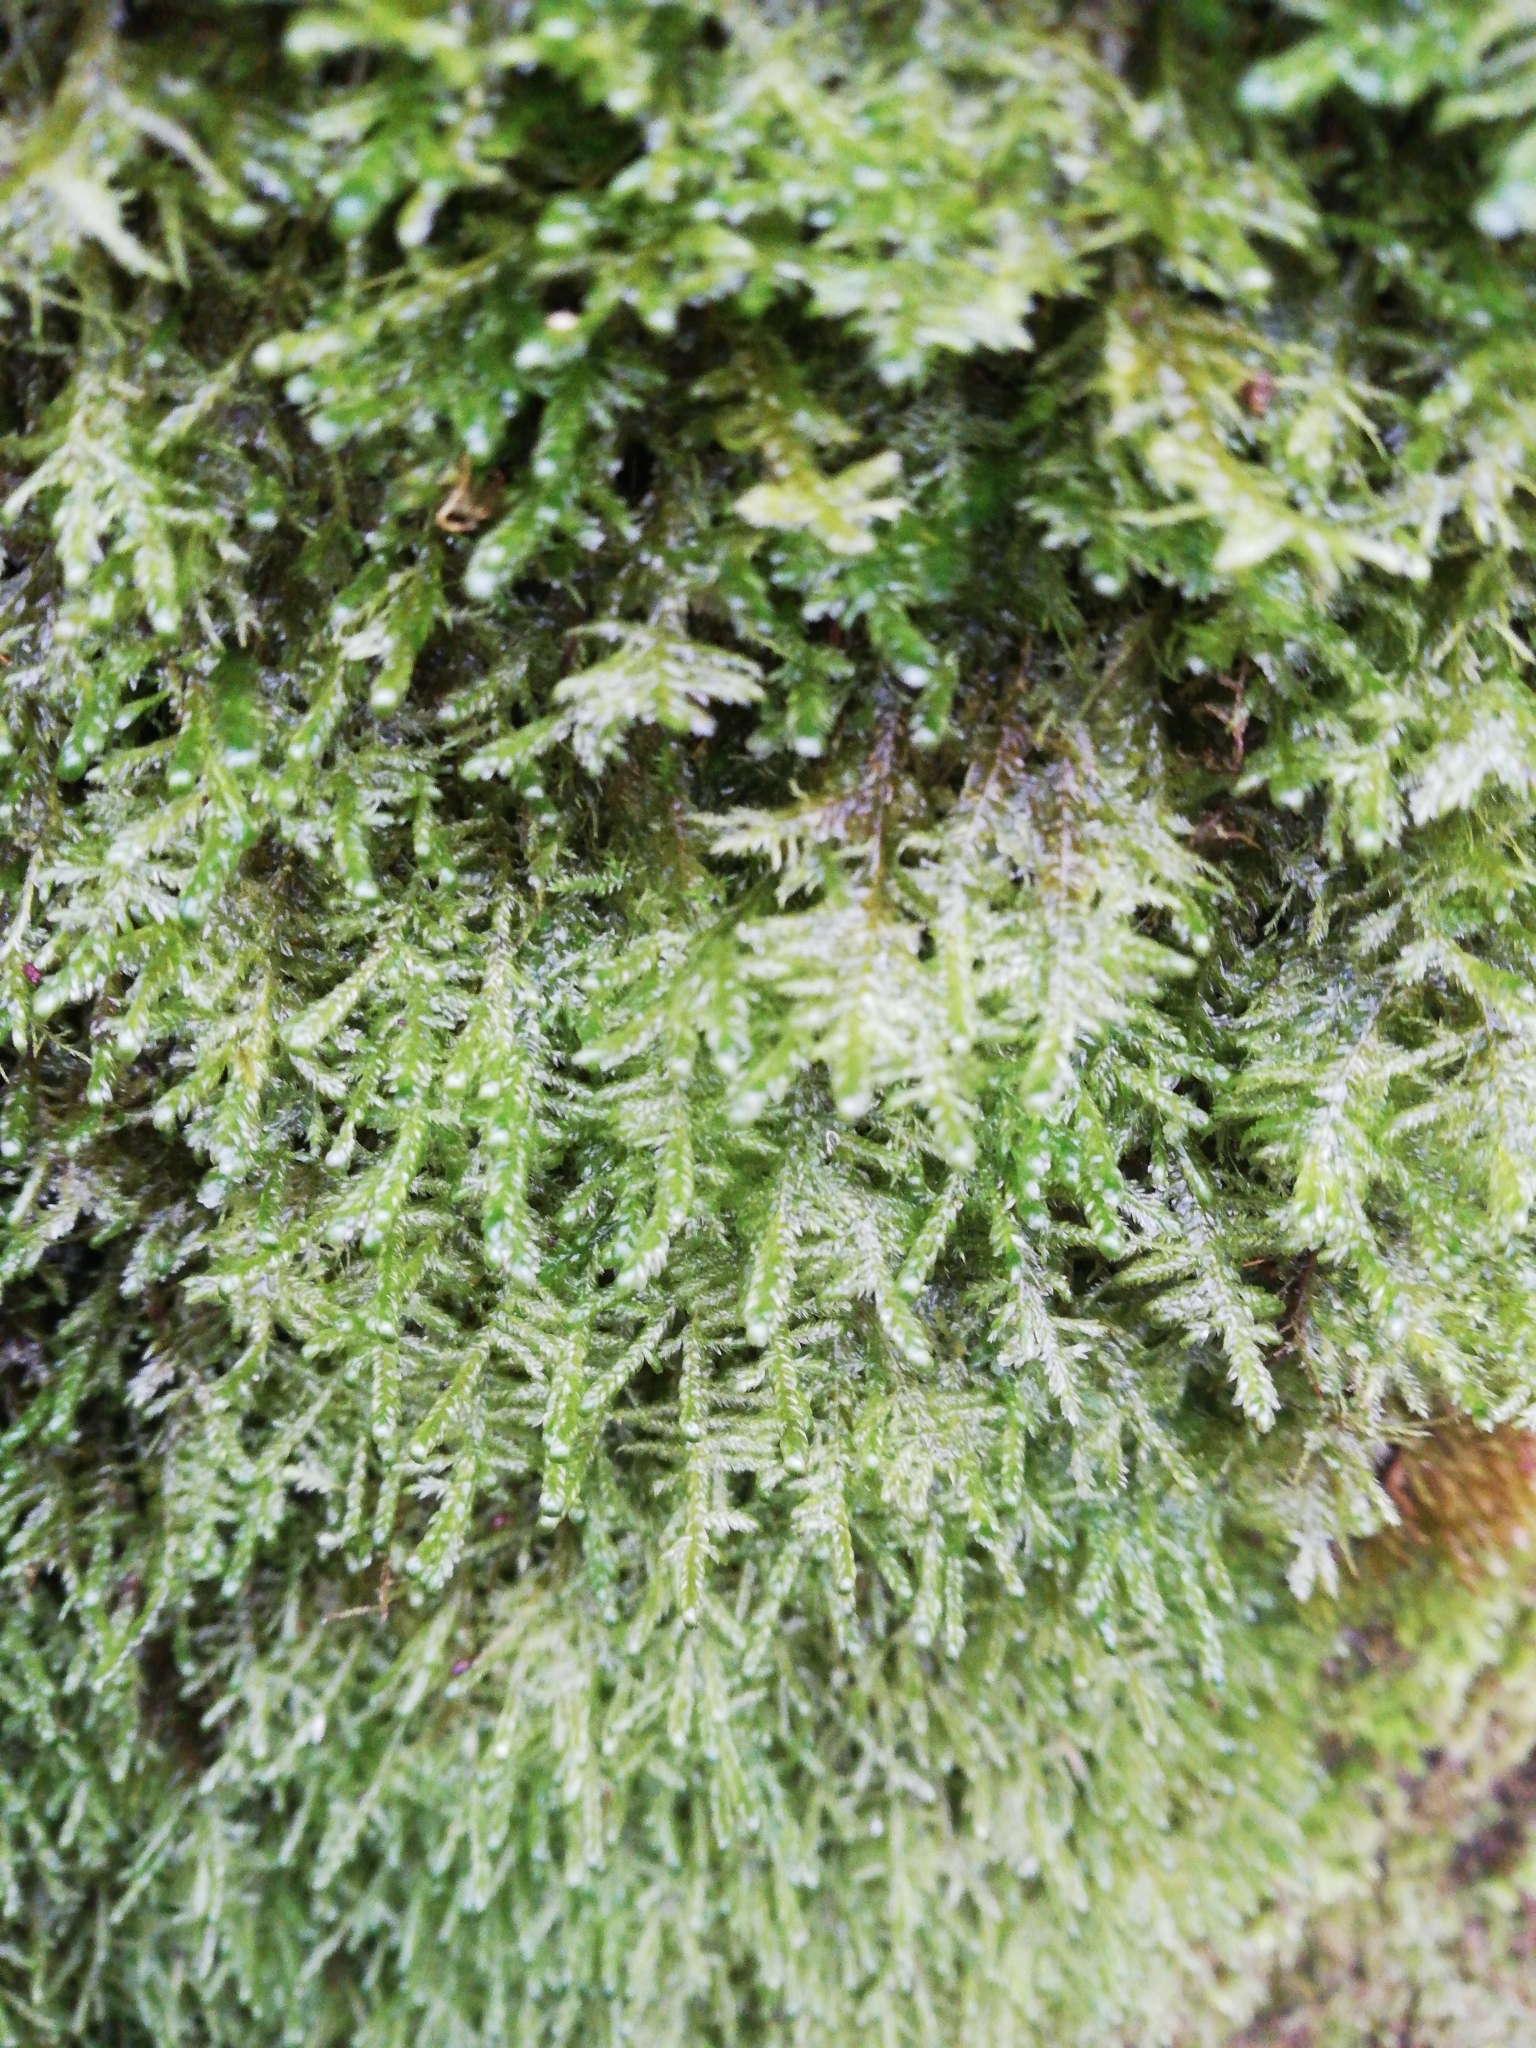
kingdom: Plantae
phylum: Bryophyta
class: Bryopsida
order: Hypnales
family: Neckeraceae
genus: Alleniella
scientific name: Alleniella complanata
